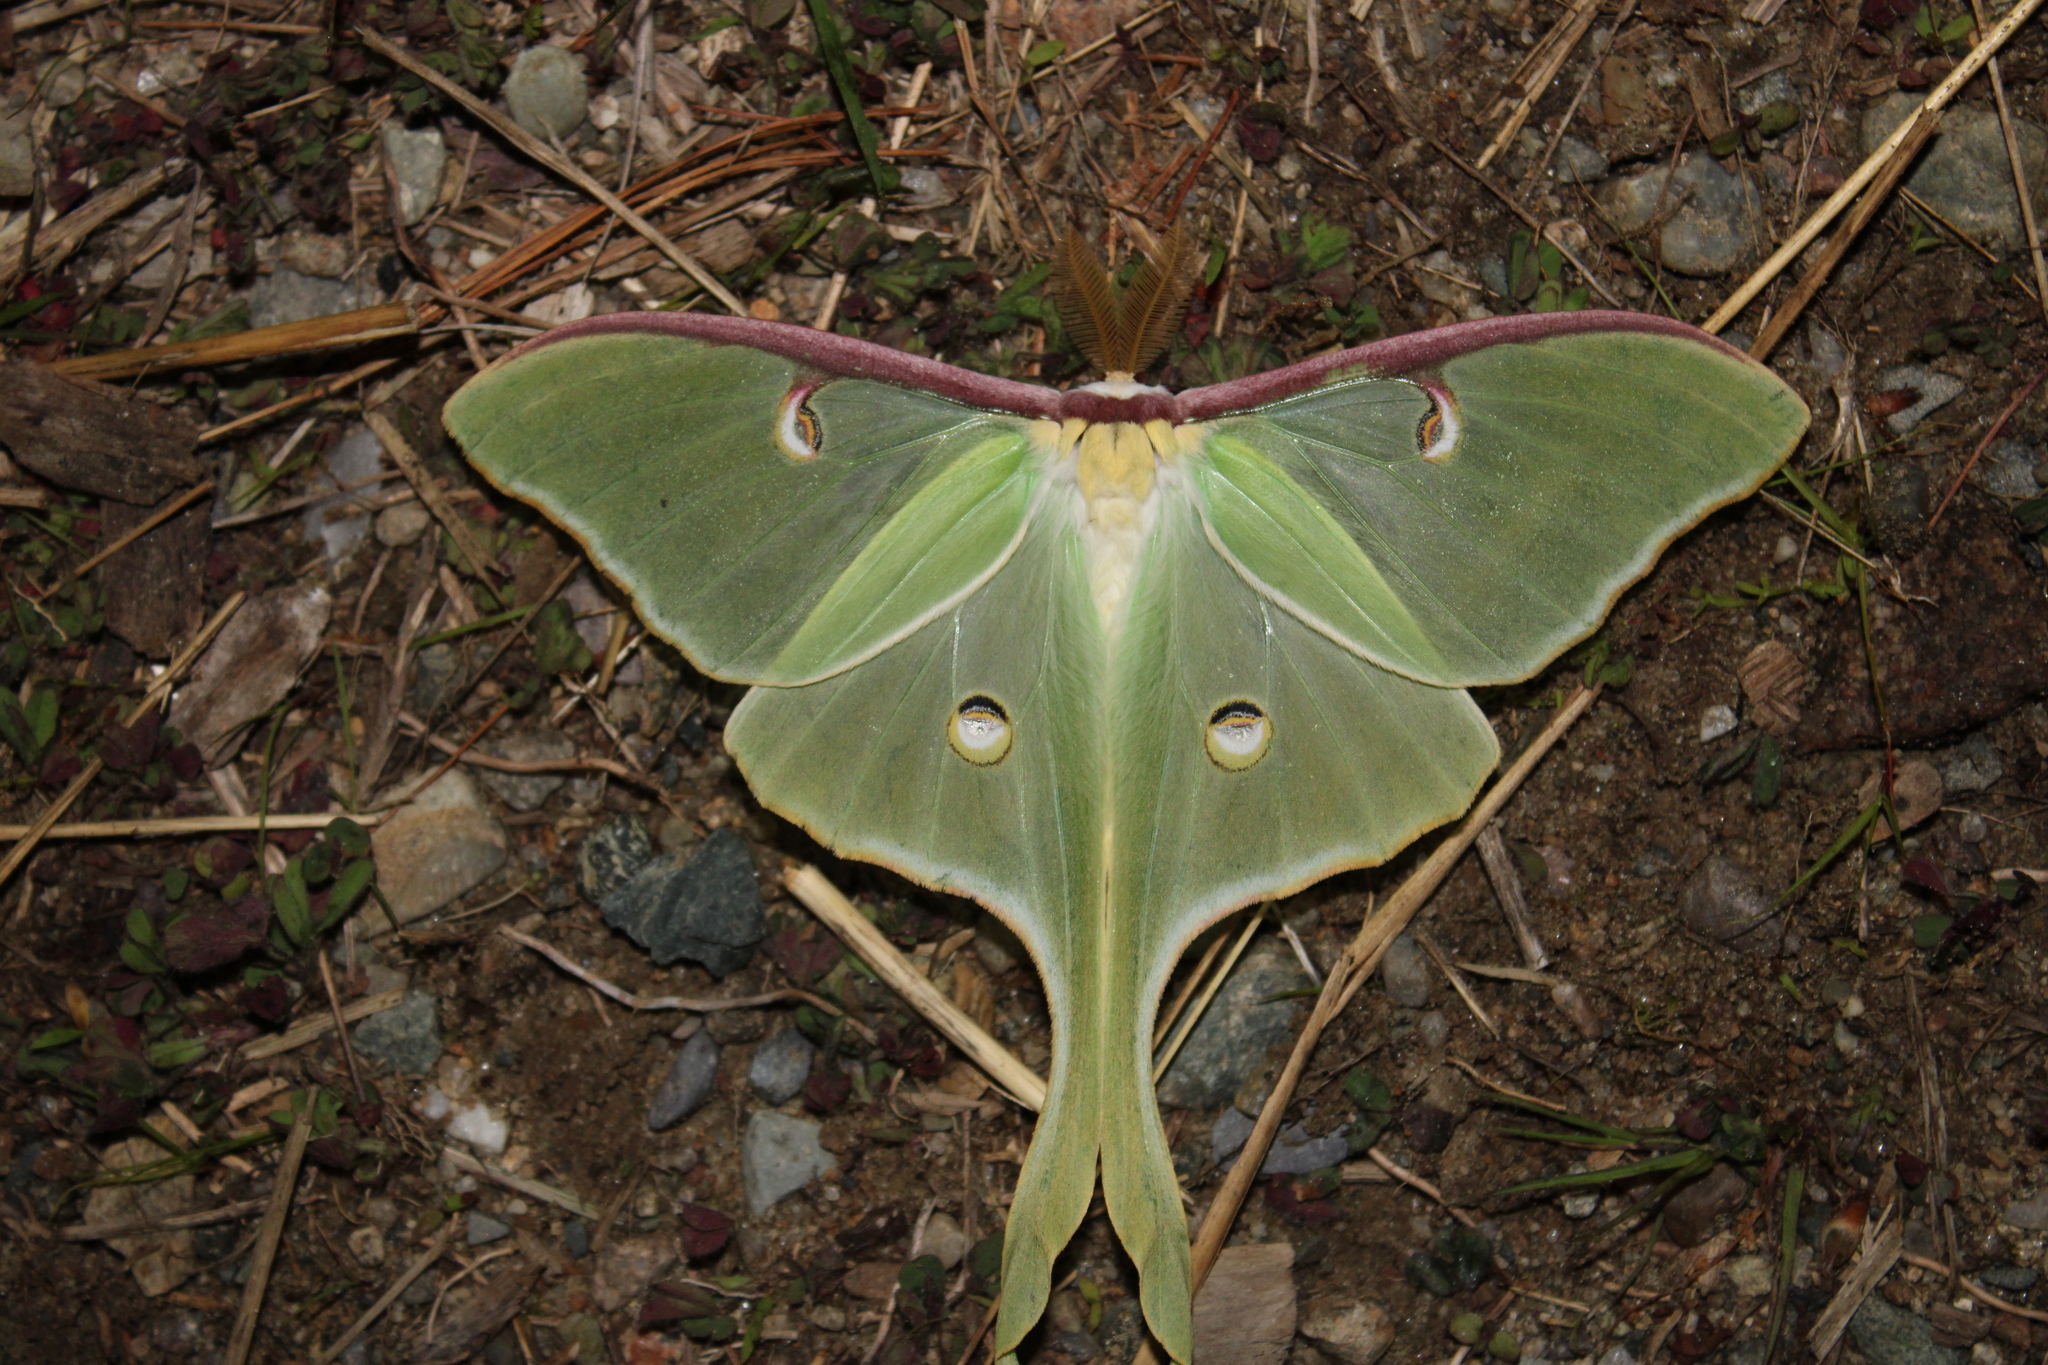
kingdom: Animalia
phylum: Arthropoda
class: Insecta
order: Lepidoptera
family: Saturniidae
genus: Actias
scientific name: Actias luna
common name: Luna moth
